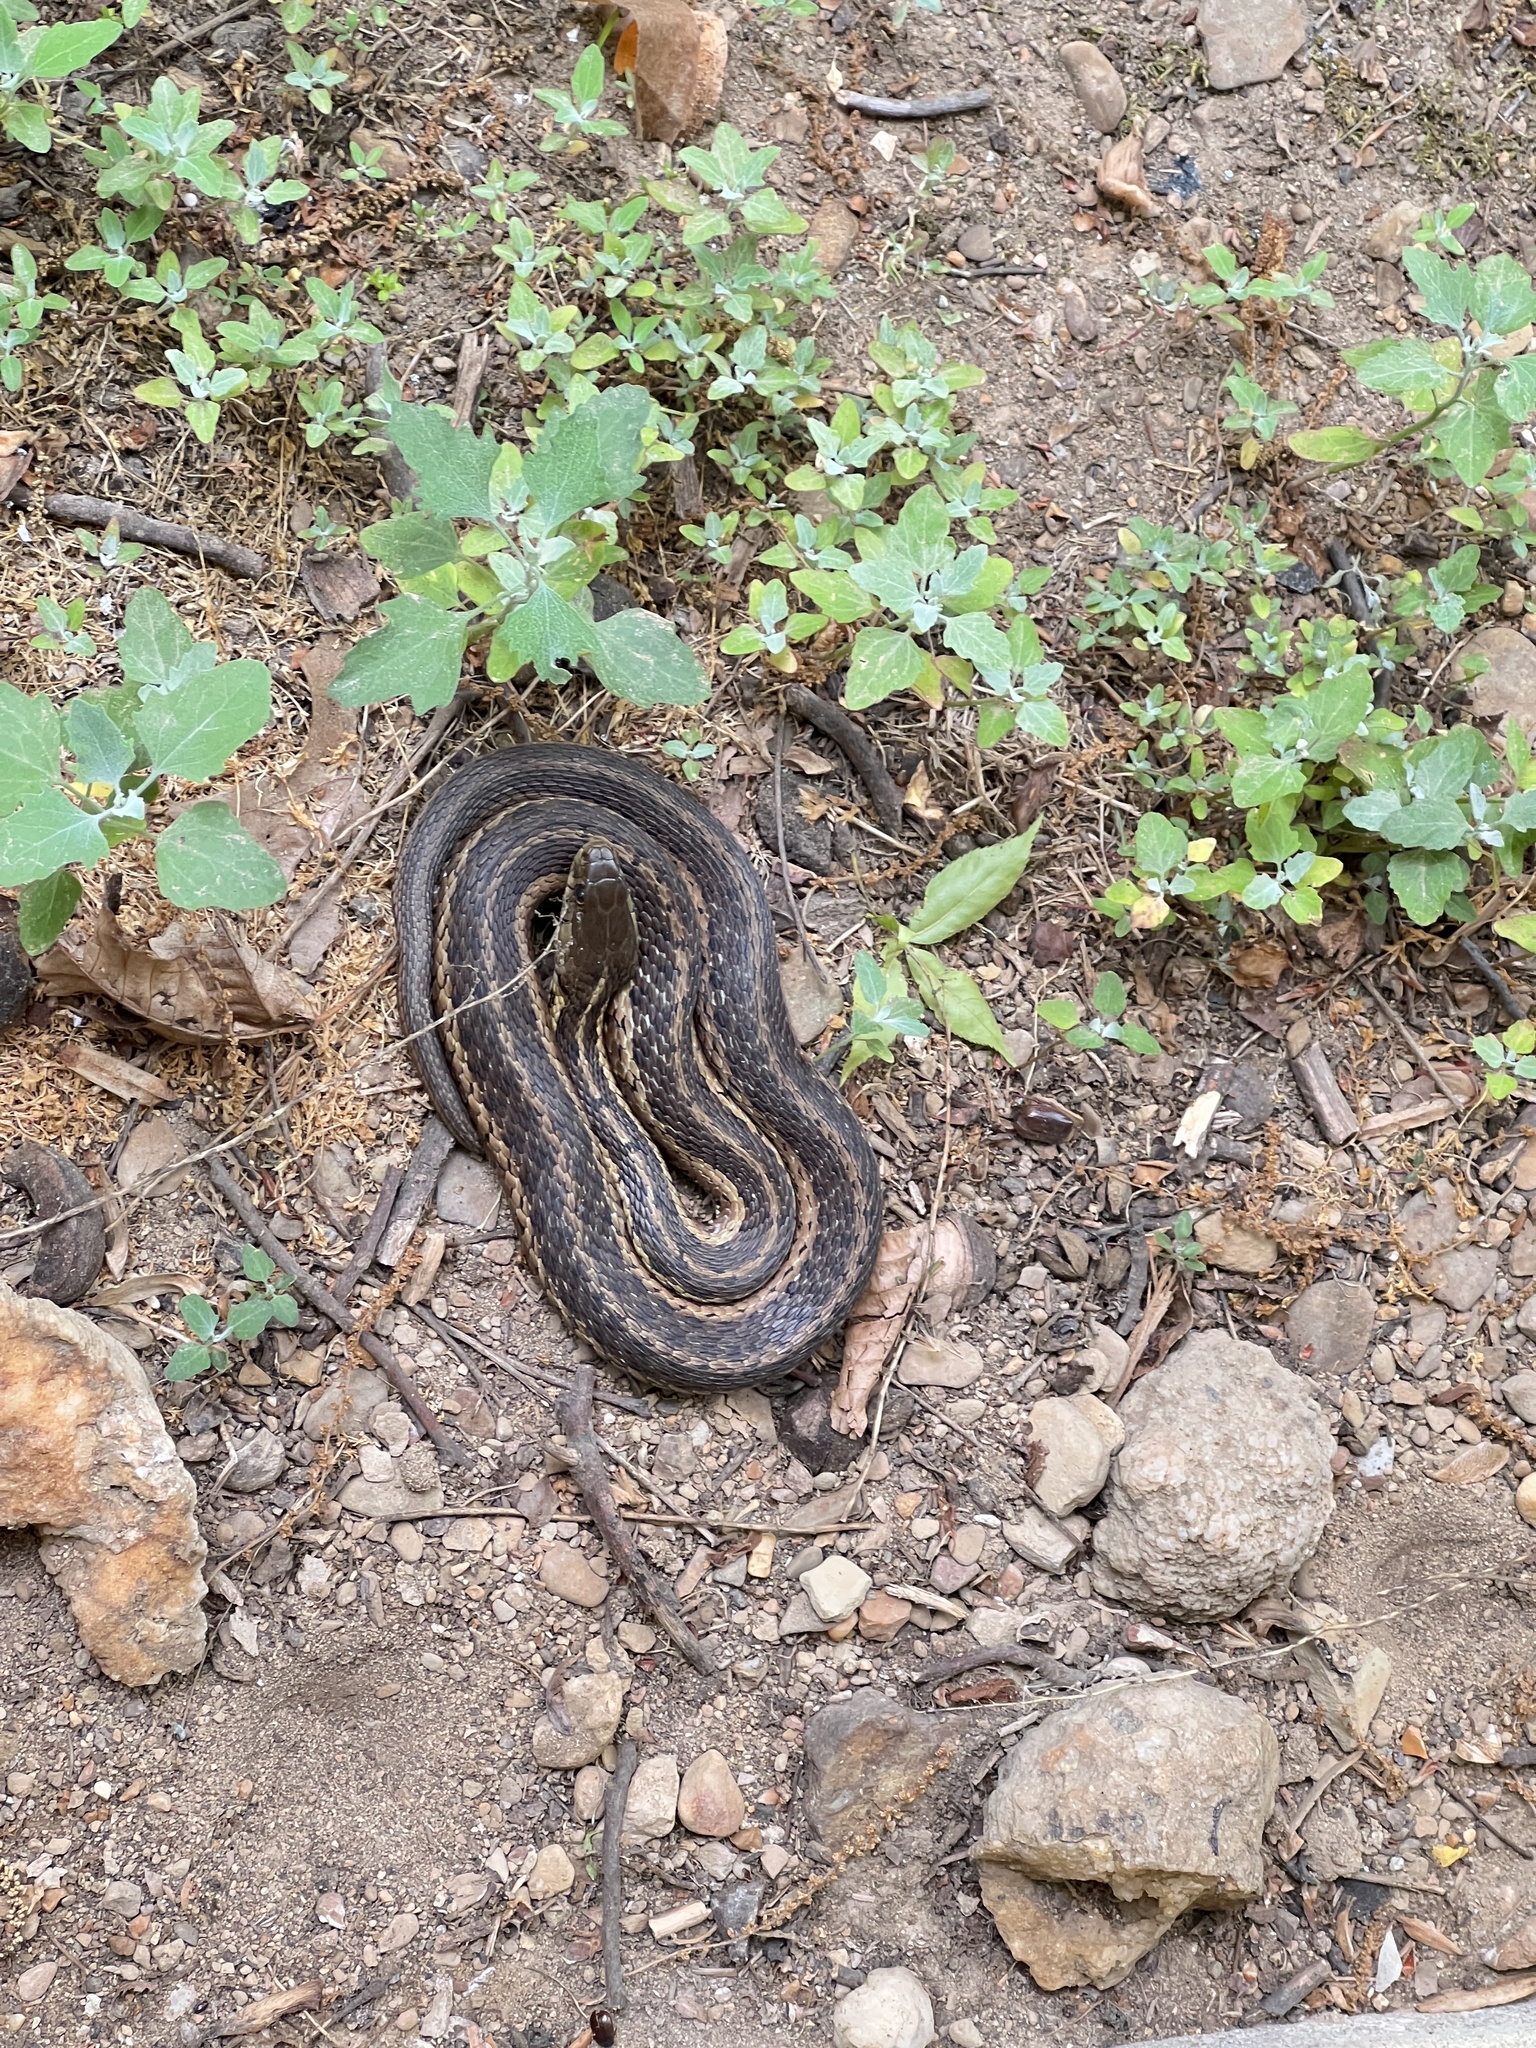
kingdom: Animalia
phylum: Chordata
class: Squamata
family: Colubridae
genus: Thamnophis
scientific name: Thamnophis sirtalis
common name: Common garter snake
